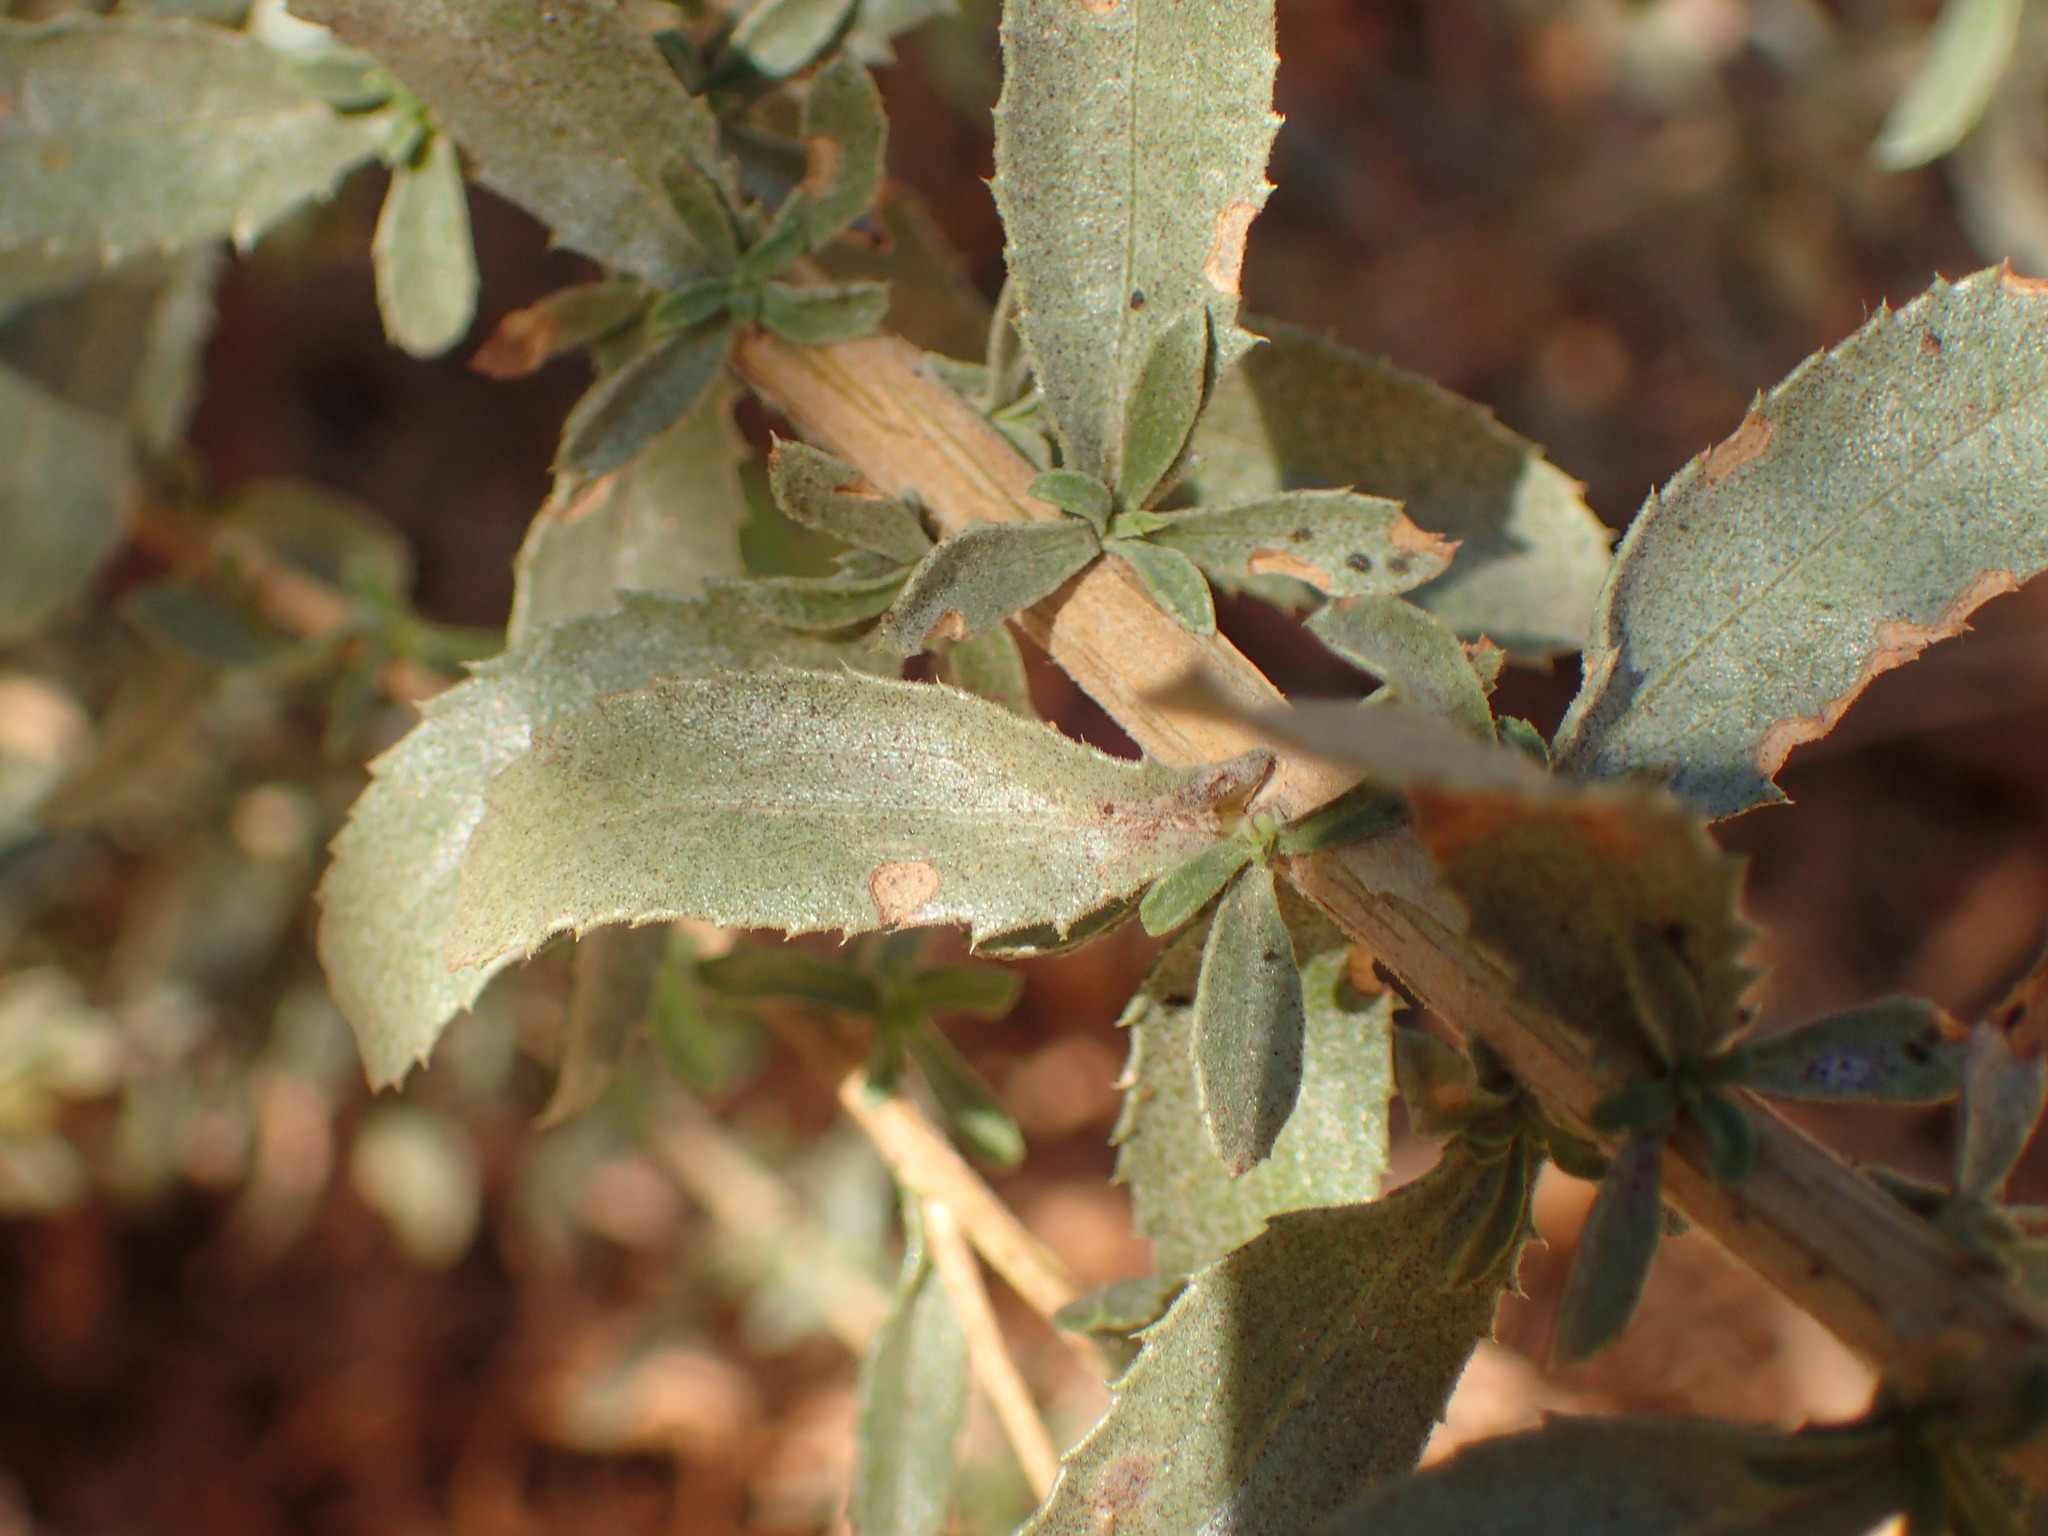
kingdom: Plantae
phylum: Tracheophyta
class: Magnoliopsida
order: Asterales
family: Asteraceae
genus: Isocoma
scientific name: Isocoma menziesii
